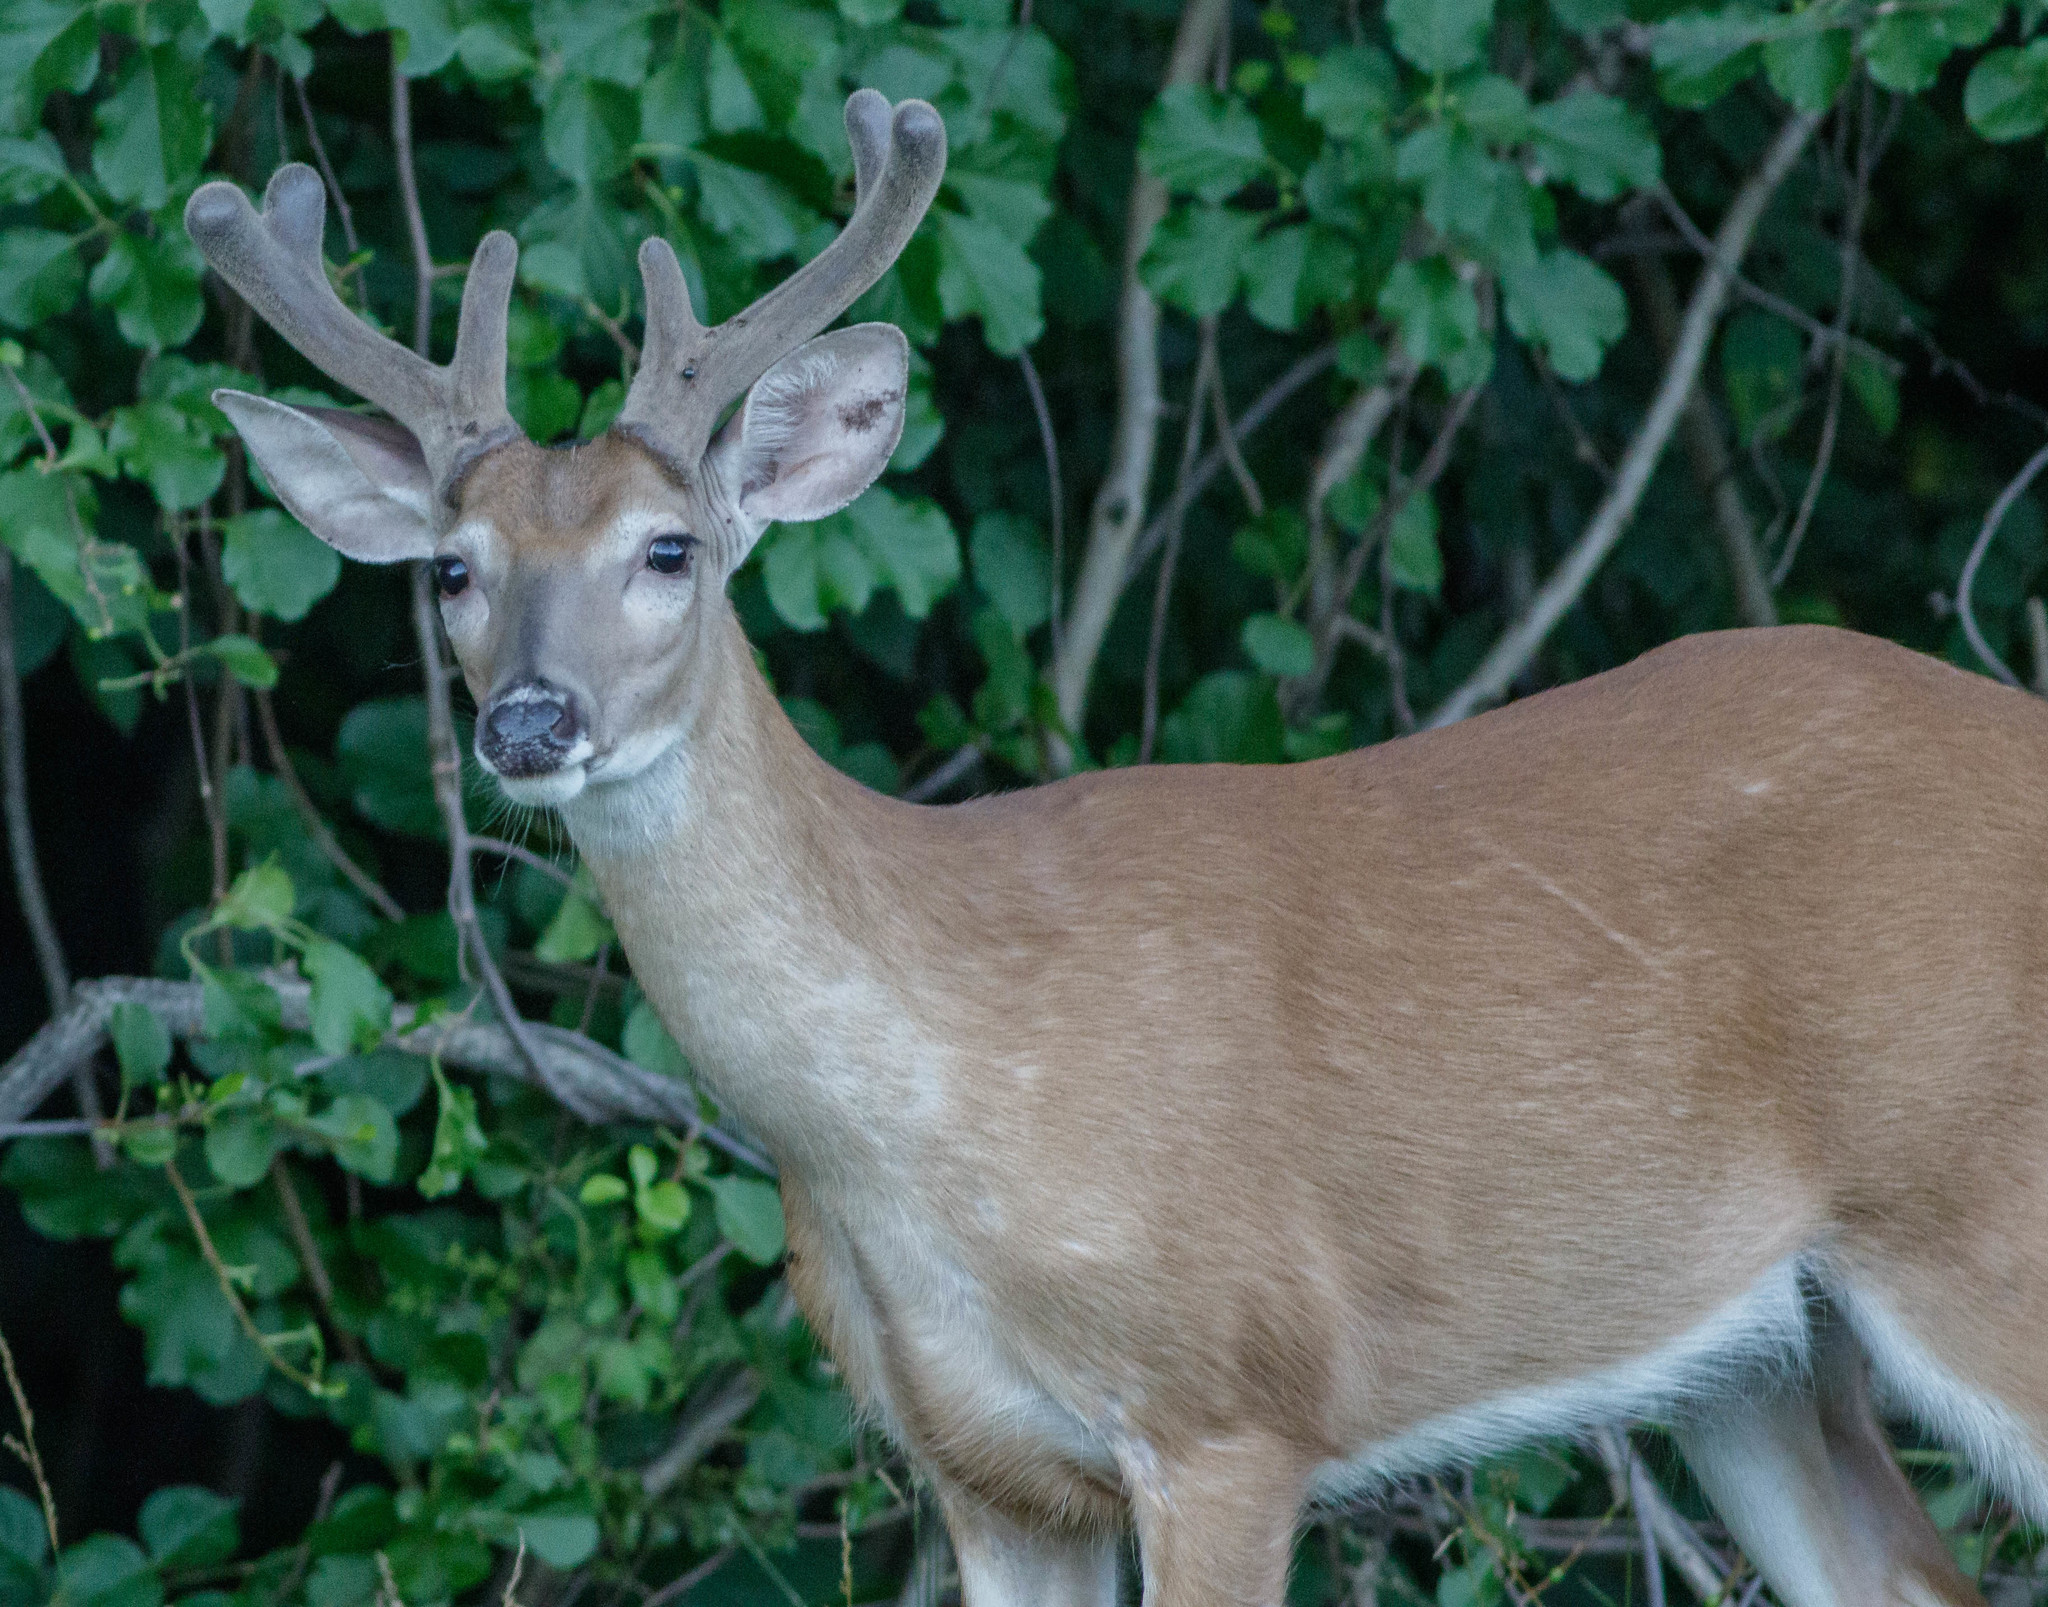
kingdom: Animalia
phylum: Chordata
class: Mammalia
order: Artiodactyla
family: Cervidae
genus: Odocoileus
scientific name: Odocoileus virginianus
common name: White-tailed deer
